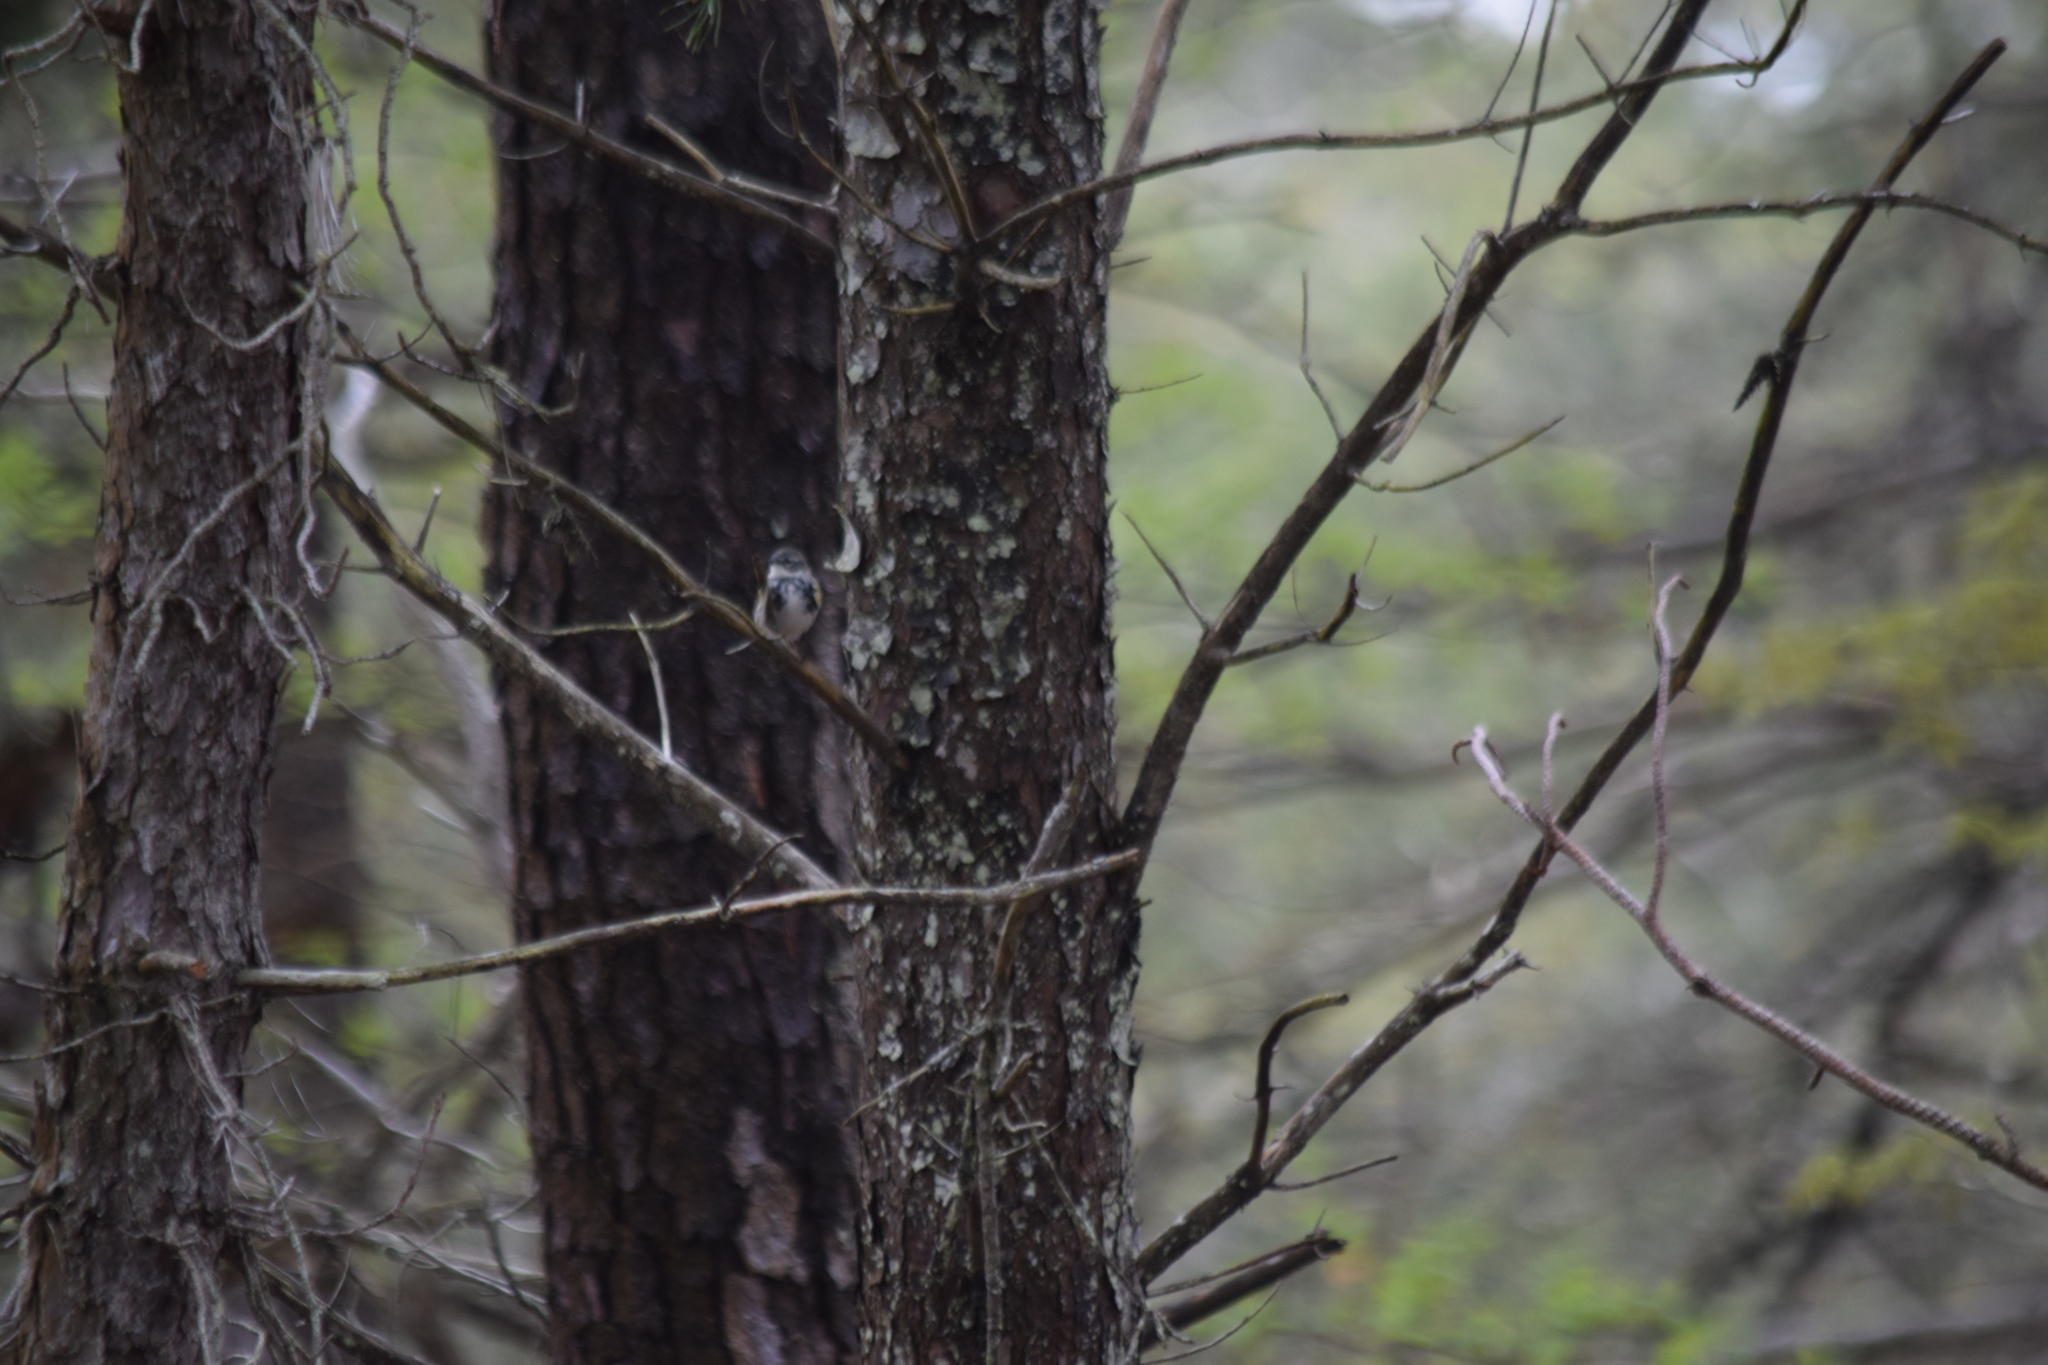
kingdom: Animalia
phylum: Chordata
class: Aves
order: Passeriformes
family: Parulidae
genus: Setophaga
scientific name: Setophaga coronata
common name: Myrtle warbler
